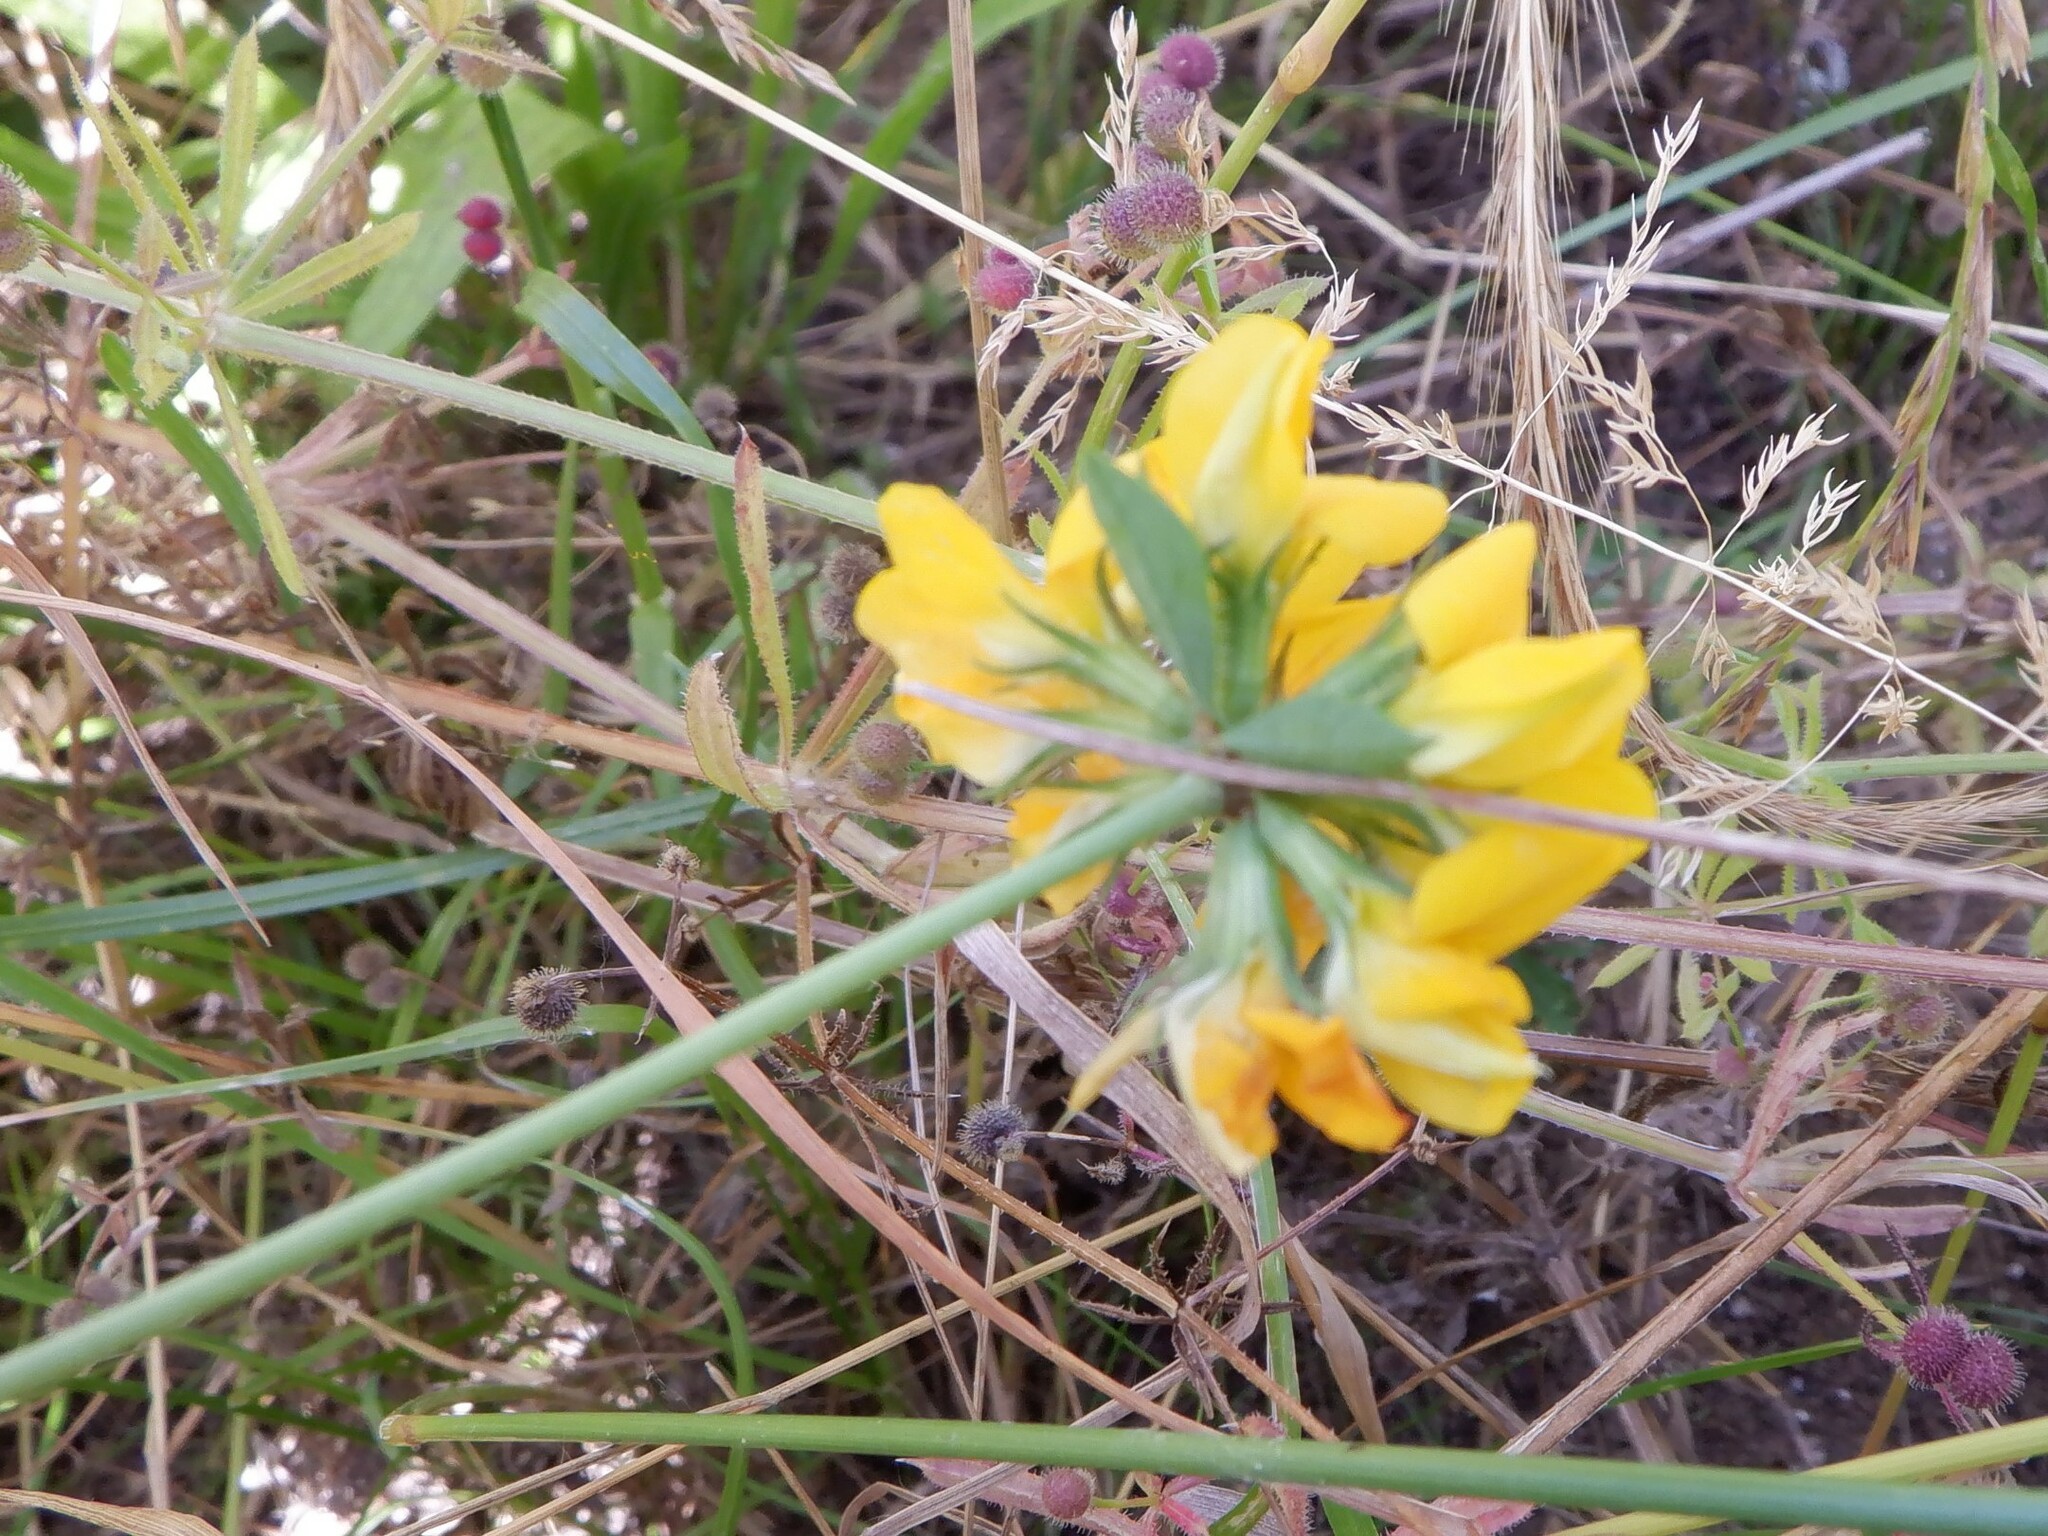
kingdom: Plantae
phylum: Tracheophyta
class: Magnoliopsida
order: Fabales
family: Fabaceae
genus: Lotus
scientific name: Lotus pedunculatus
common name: Greater birdsfoot-trefoil
